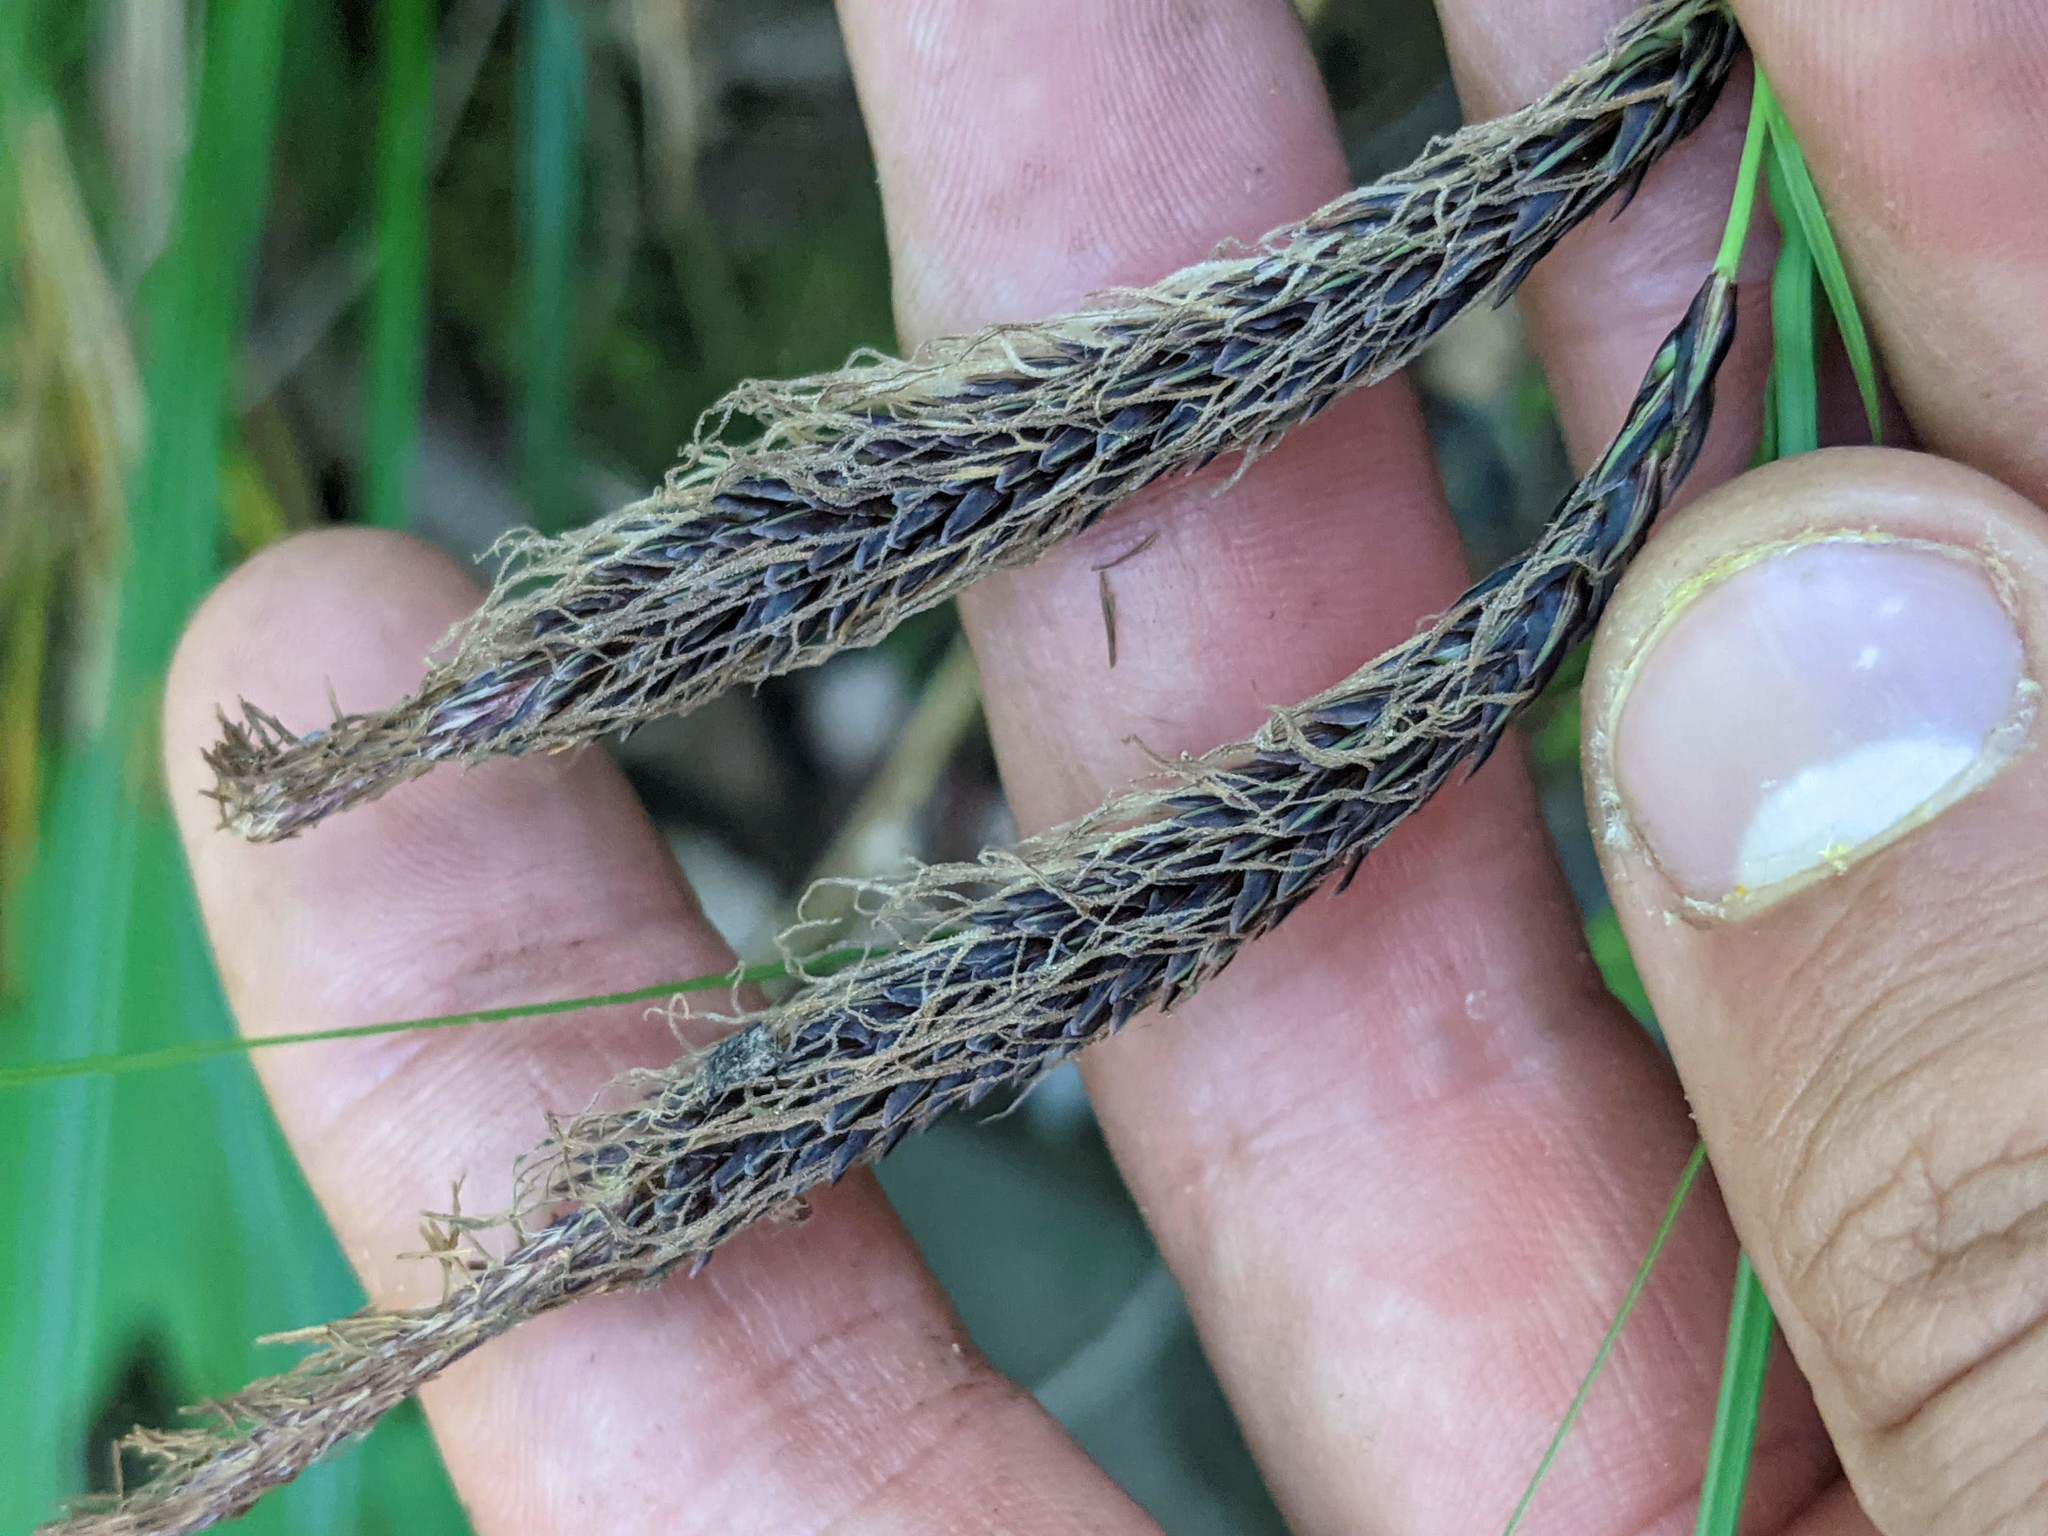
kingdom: Plantae
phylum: Tracheophyta
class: Liliopsida
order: Poales
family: Cyperaceae
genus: Carex
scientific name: Carex obnupta
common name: Slough sedge
